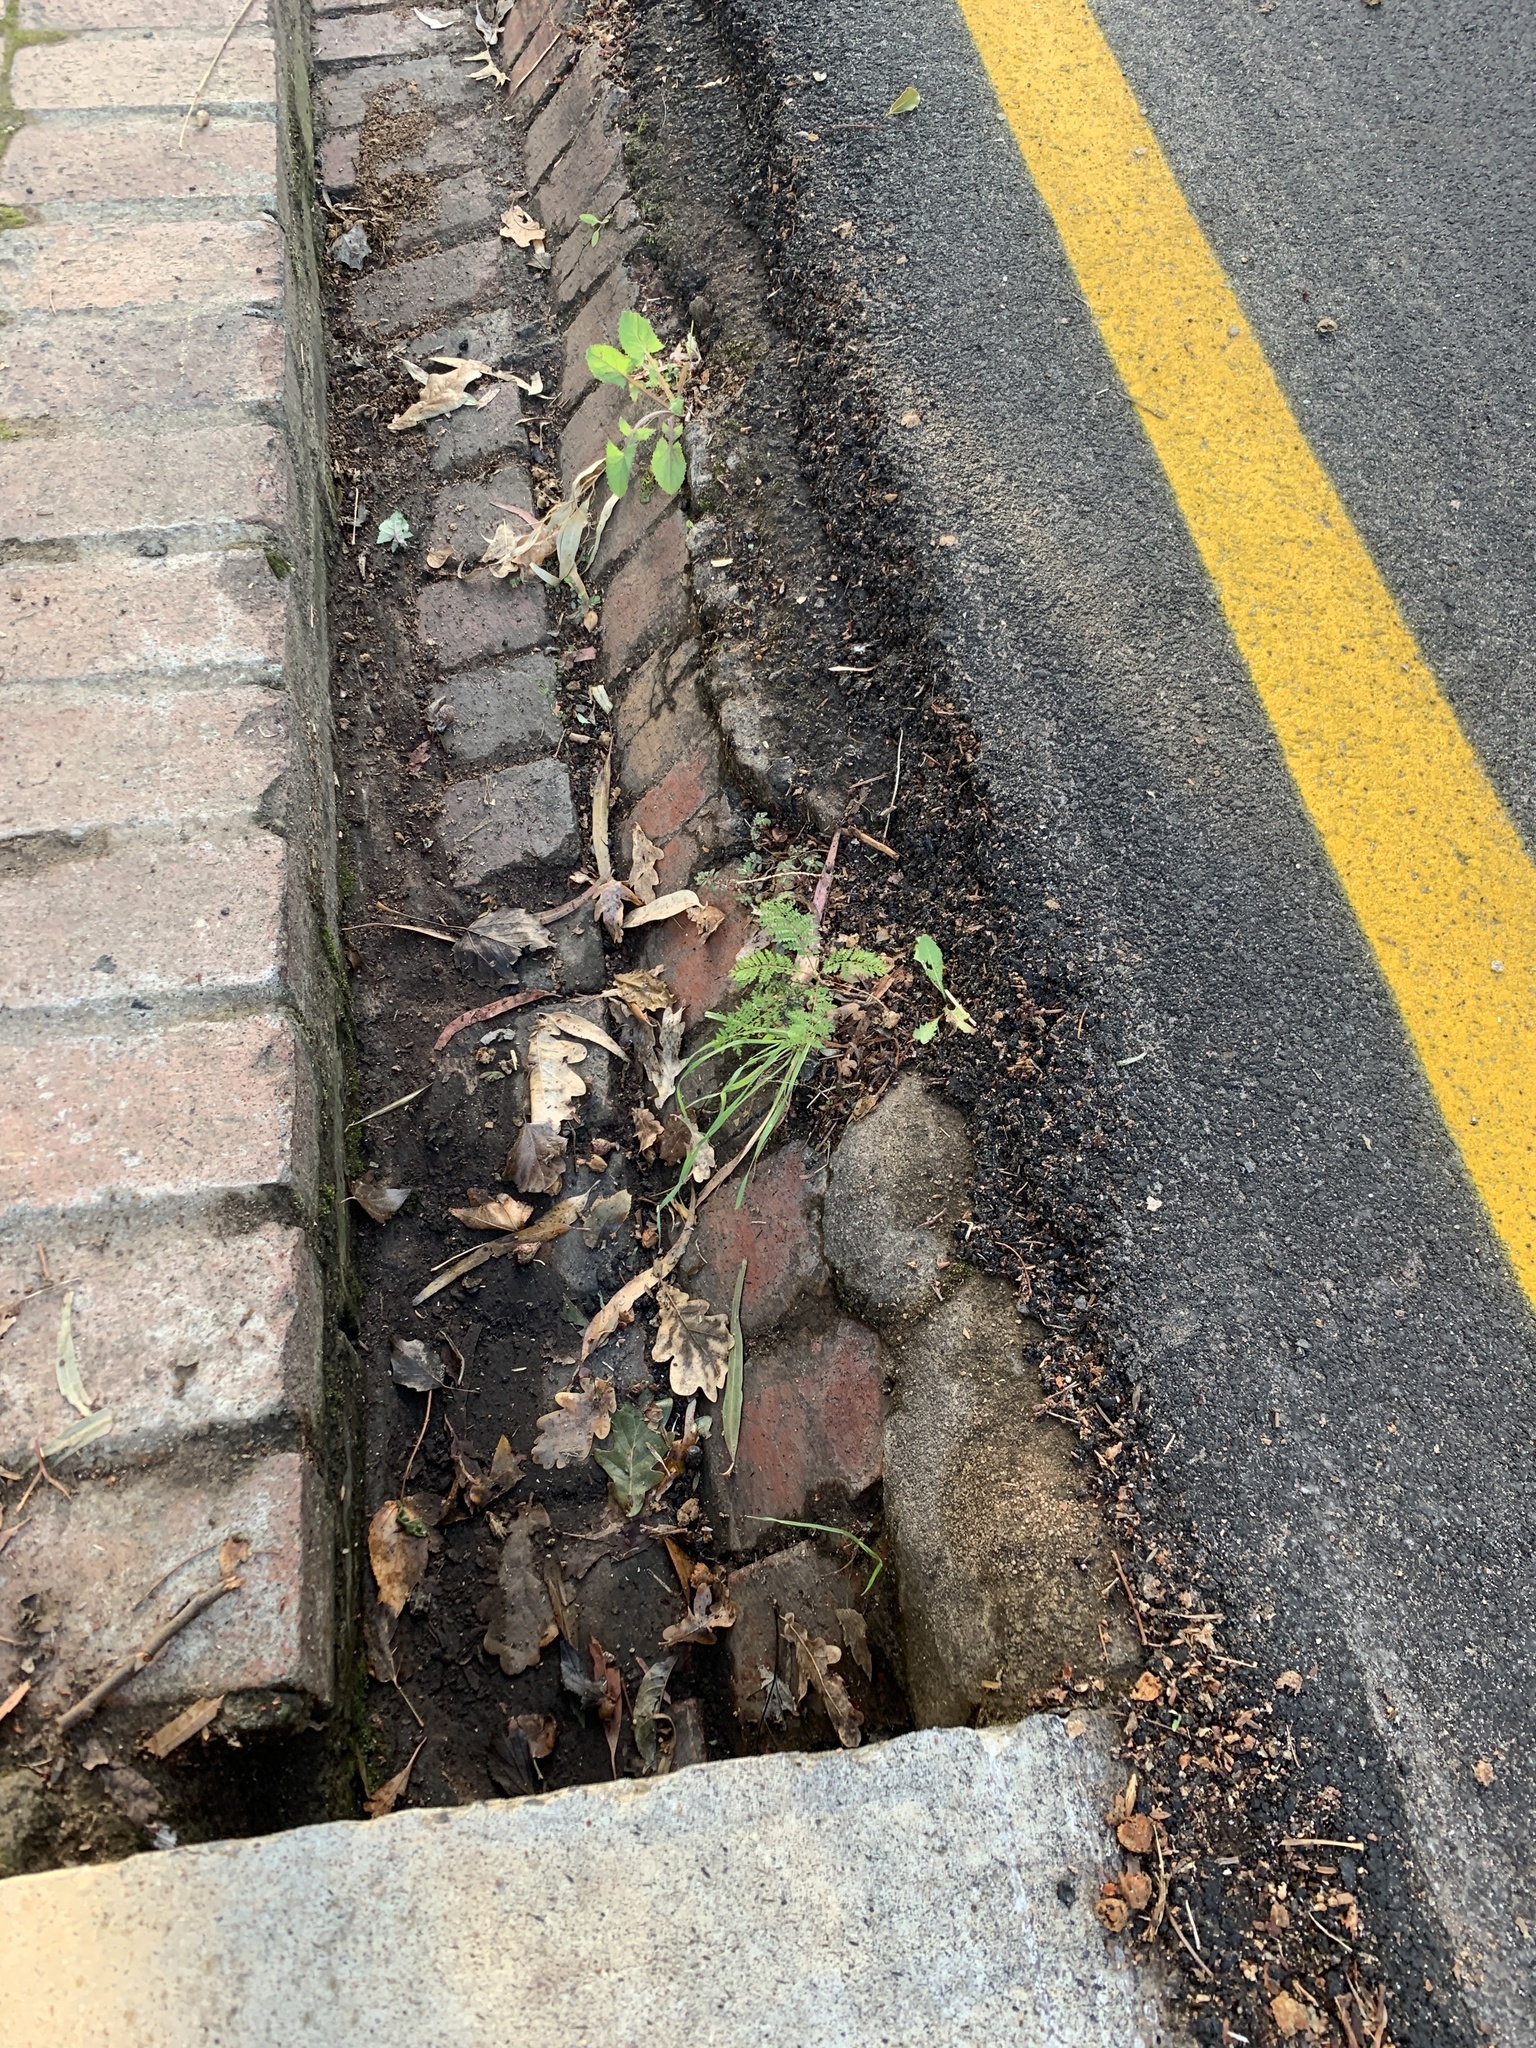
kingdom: Plantae
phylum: Tracheophyta
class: Magnoliopsida
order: Lamiales
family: Bignoniaceae
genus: Jacaranda
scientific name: Jacaranda mimosifolia
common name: Black poui
